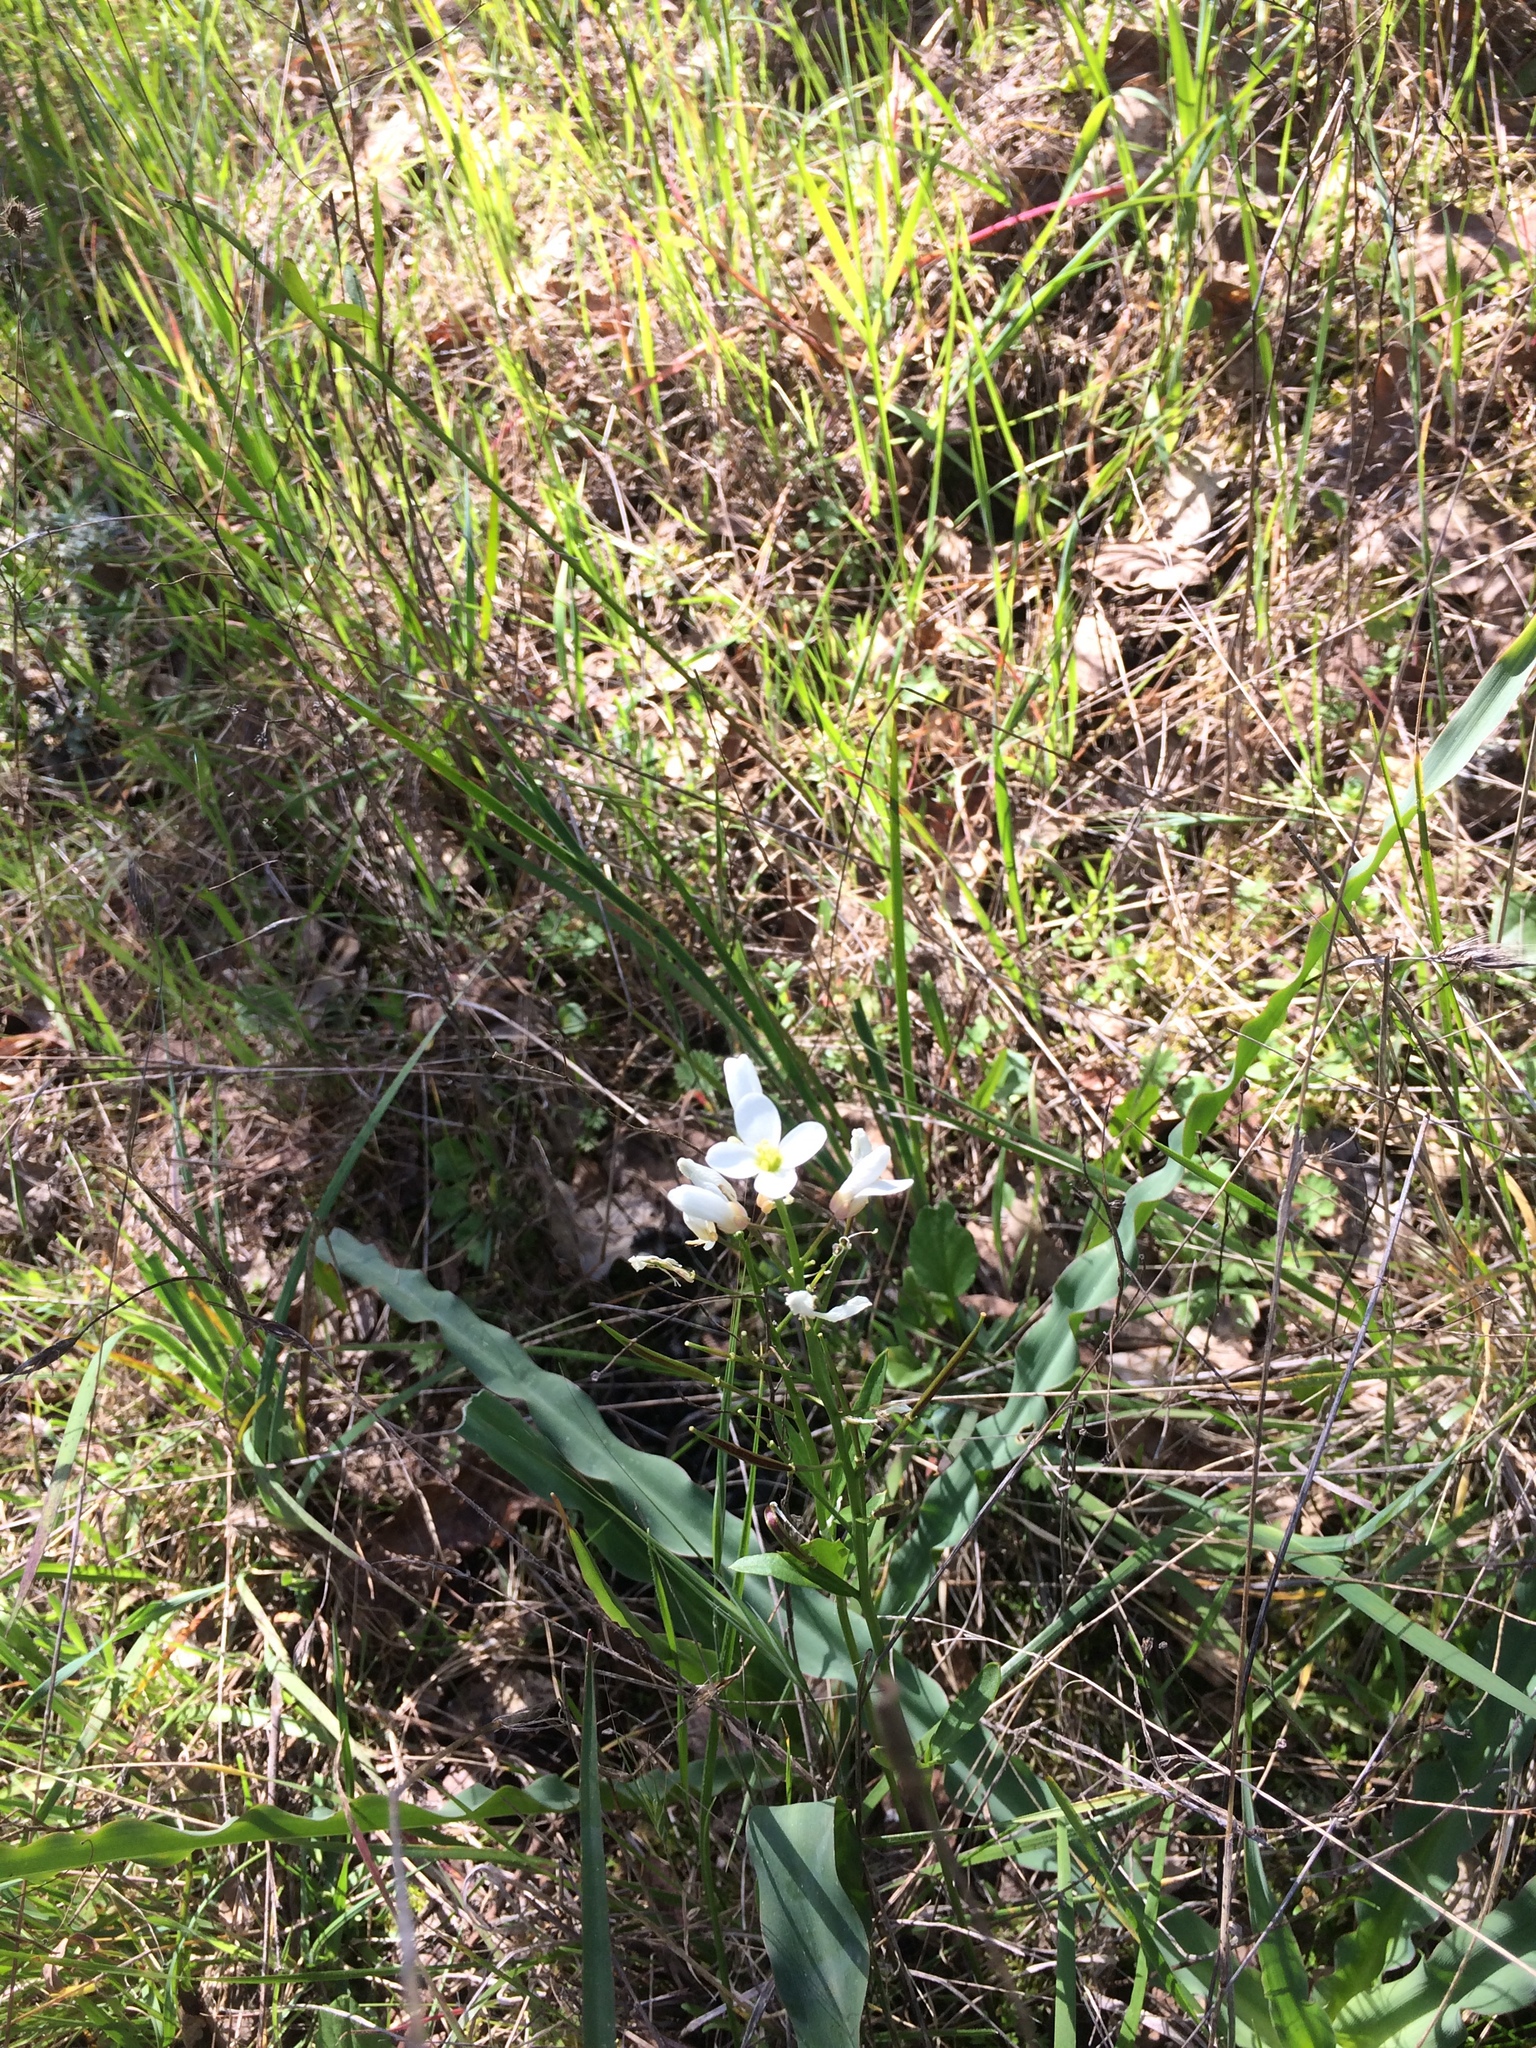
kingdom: Plantae
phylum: Tracheophyta
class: Magnoliopsida
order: Brassicales
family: Brassicaceae
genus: Cardamine
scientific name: Cardamine californica
